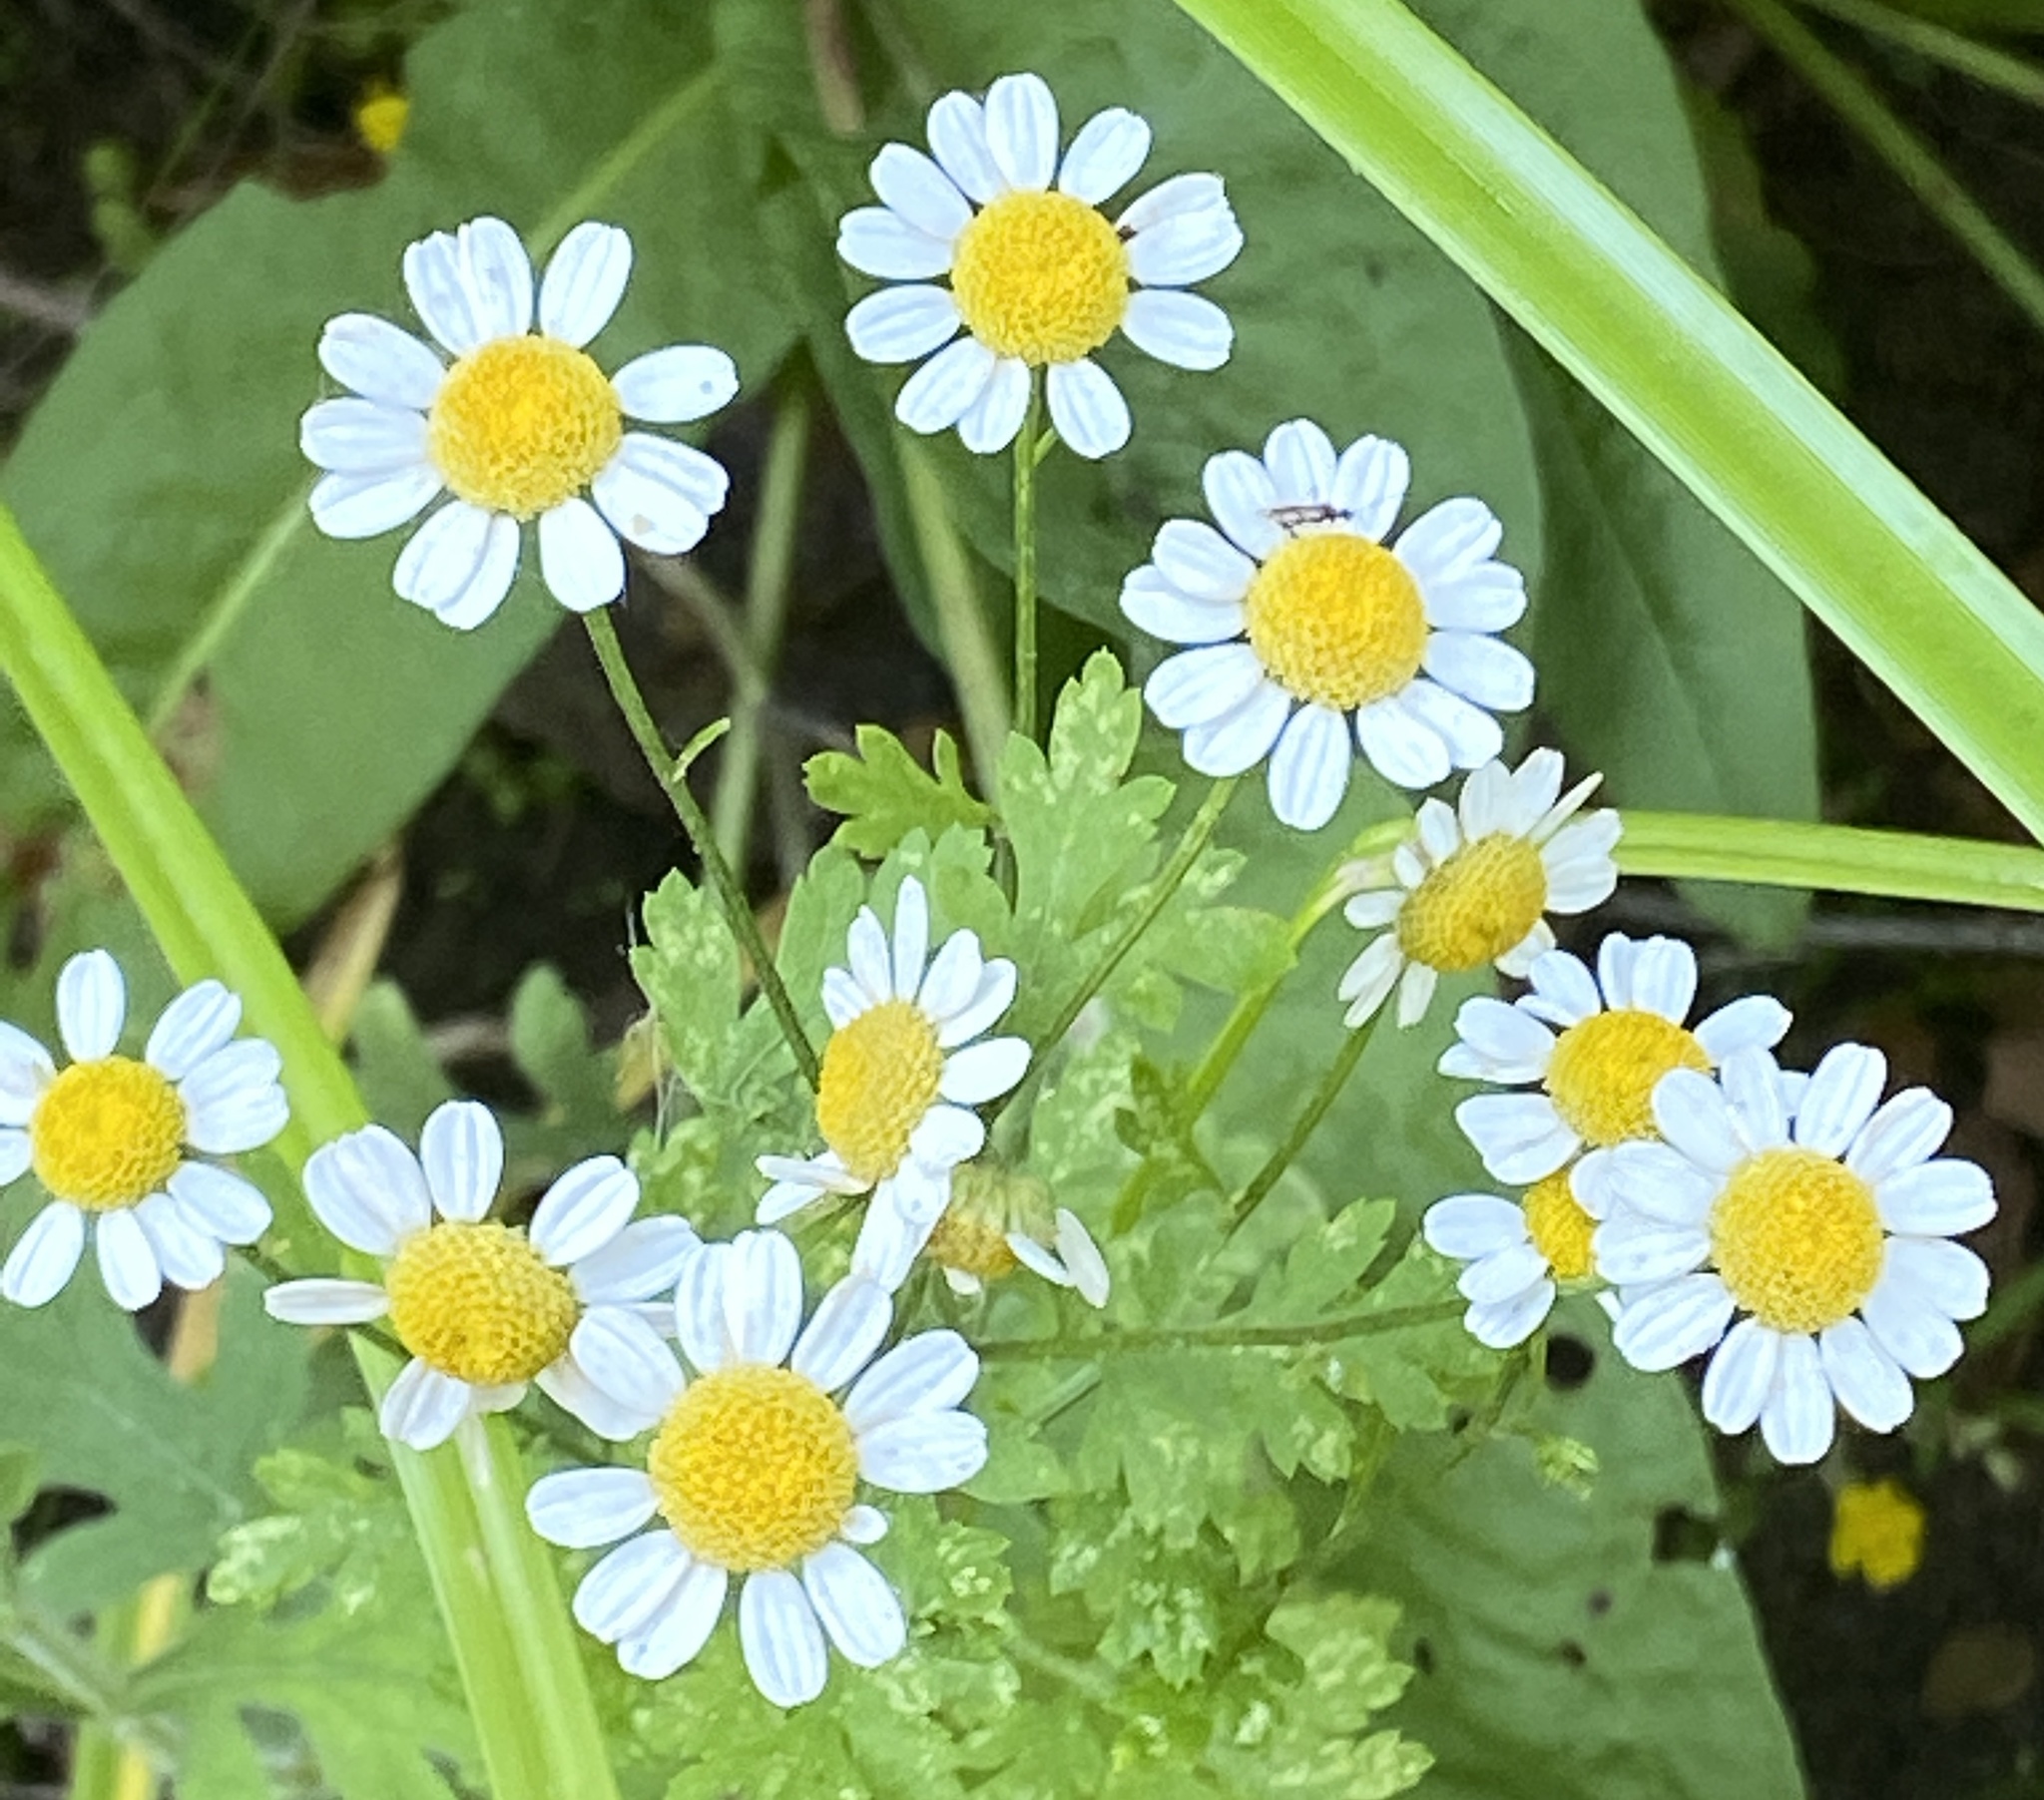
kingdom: Plantae
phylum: Tracheophyta
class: Magnoliopsida
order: Asterales
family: Asteraceae
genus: Tanacetum
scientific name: Tanacetum parthenium
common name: Feverfew
